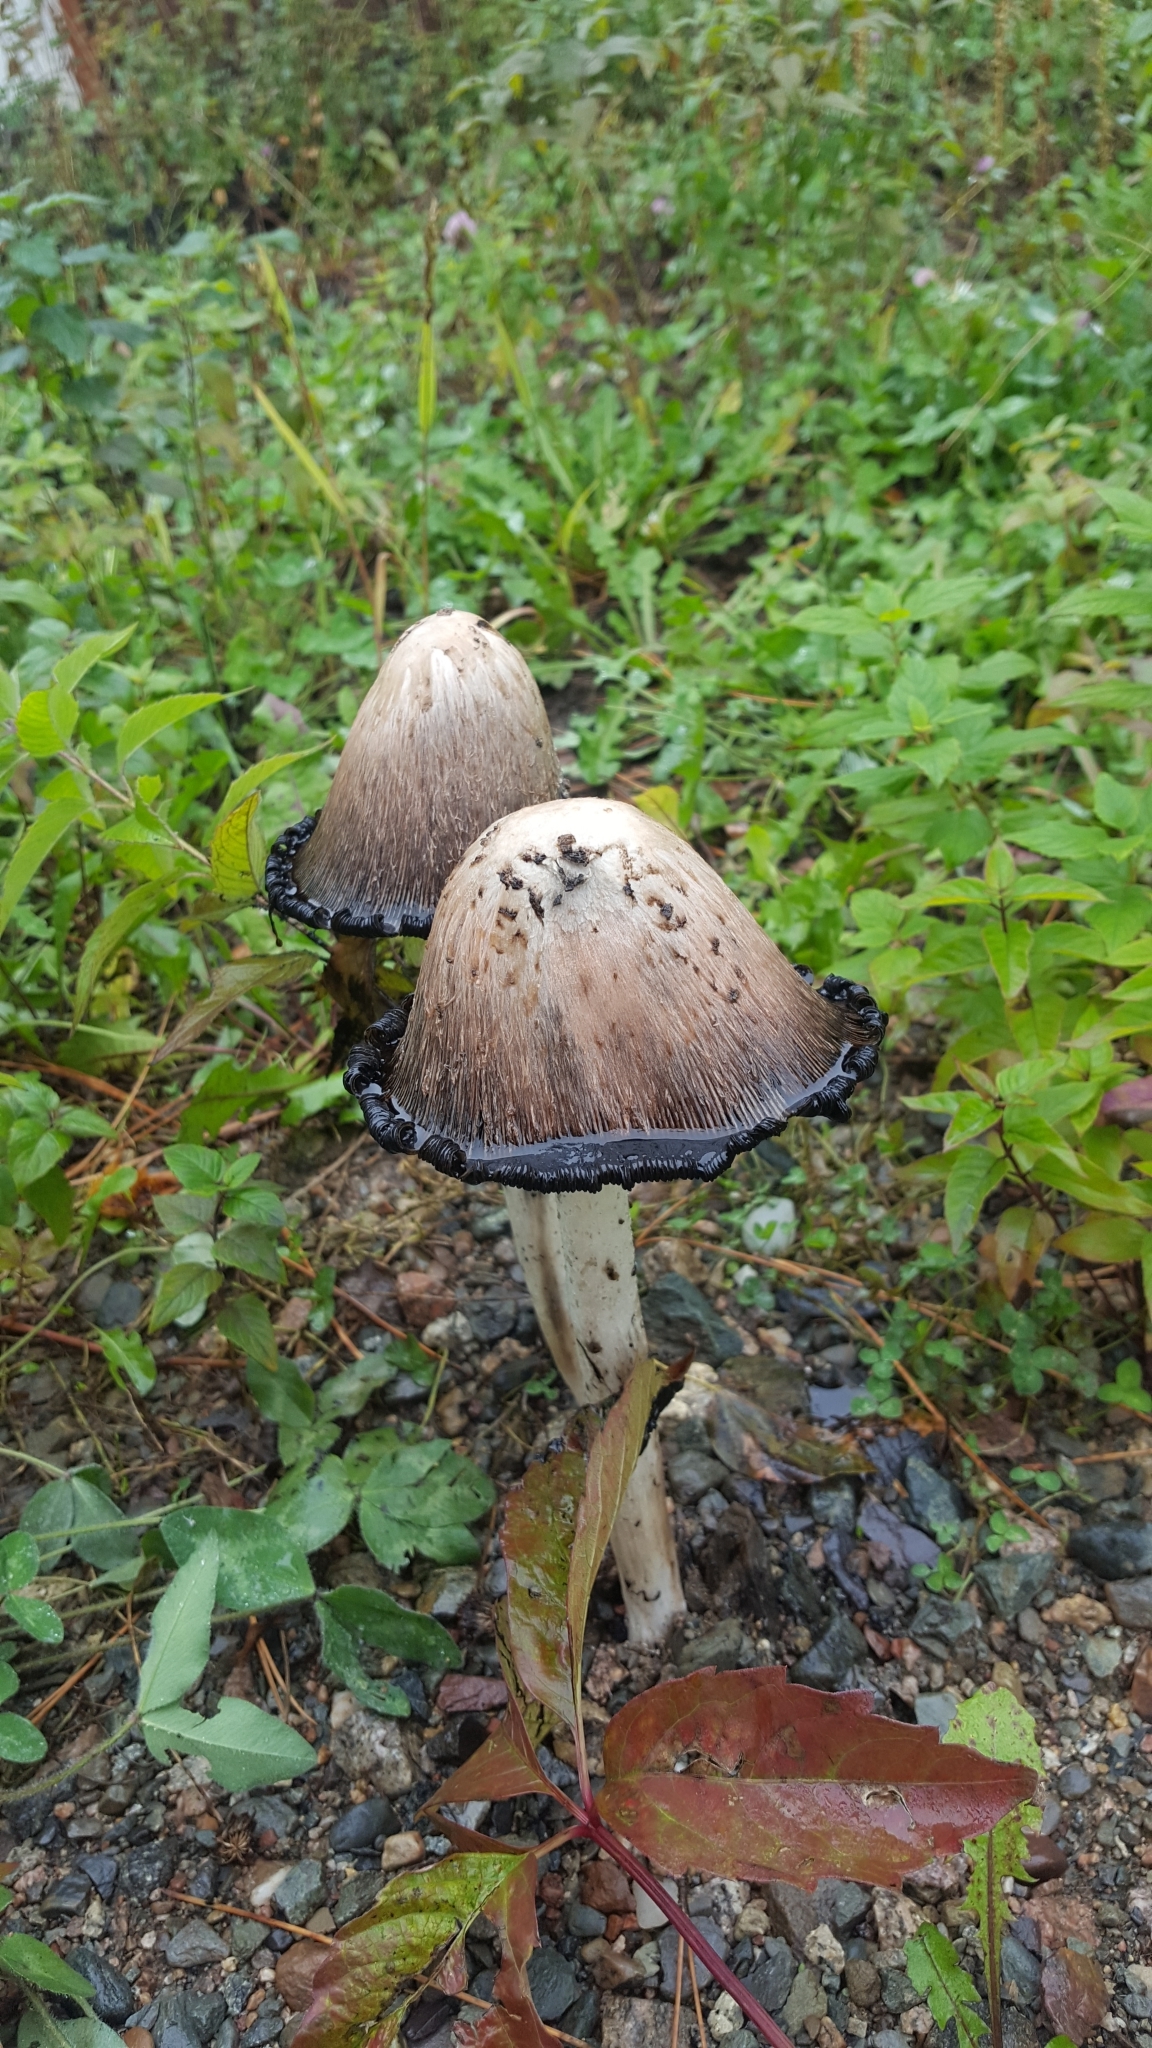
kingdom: Fungi
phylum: Basidiomycota
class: Agaricomycetes
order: Agaricales
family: Psathyrellaceae
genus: Coprinopsis
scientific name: Coprinopsis atramentaria
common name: Common ink-cap
